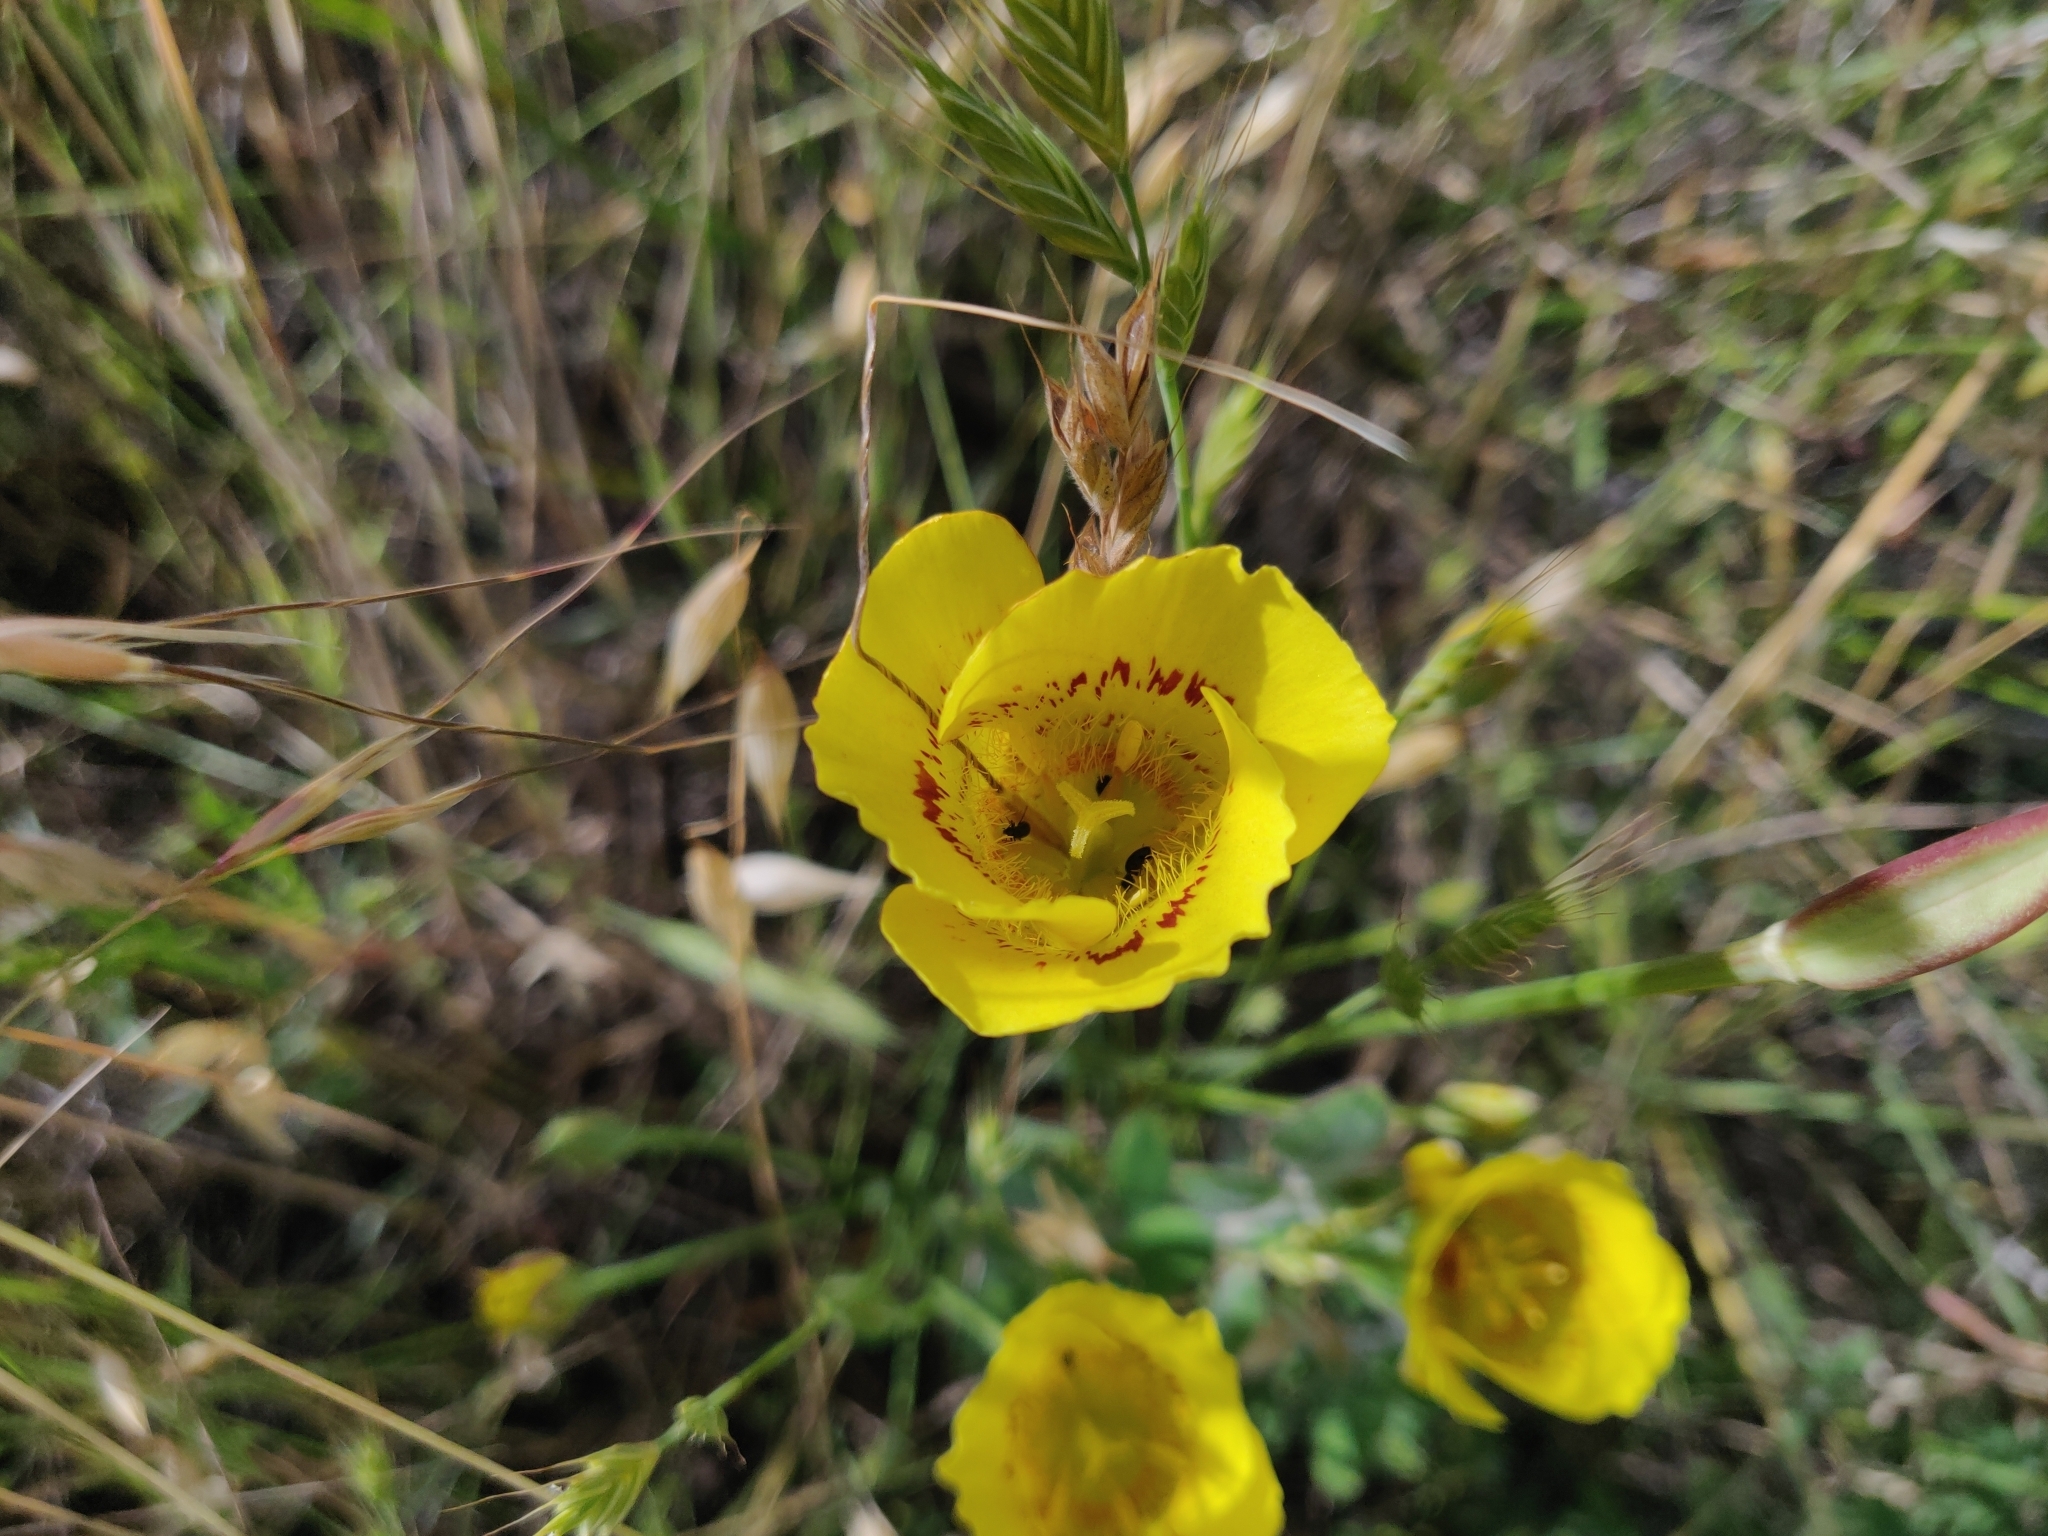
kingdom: Plantae
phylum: Tracheophyta
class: Liliopsida
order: Liliales
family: Liliaceae
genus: Calochortus
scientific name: Calochortus luteus
